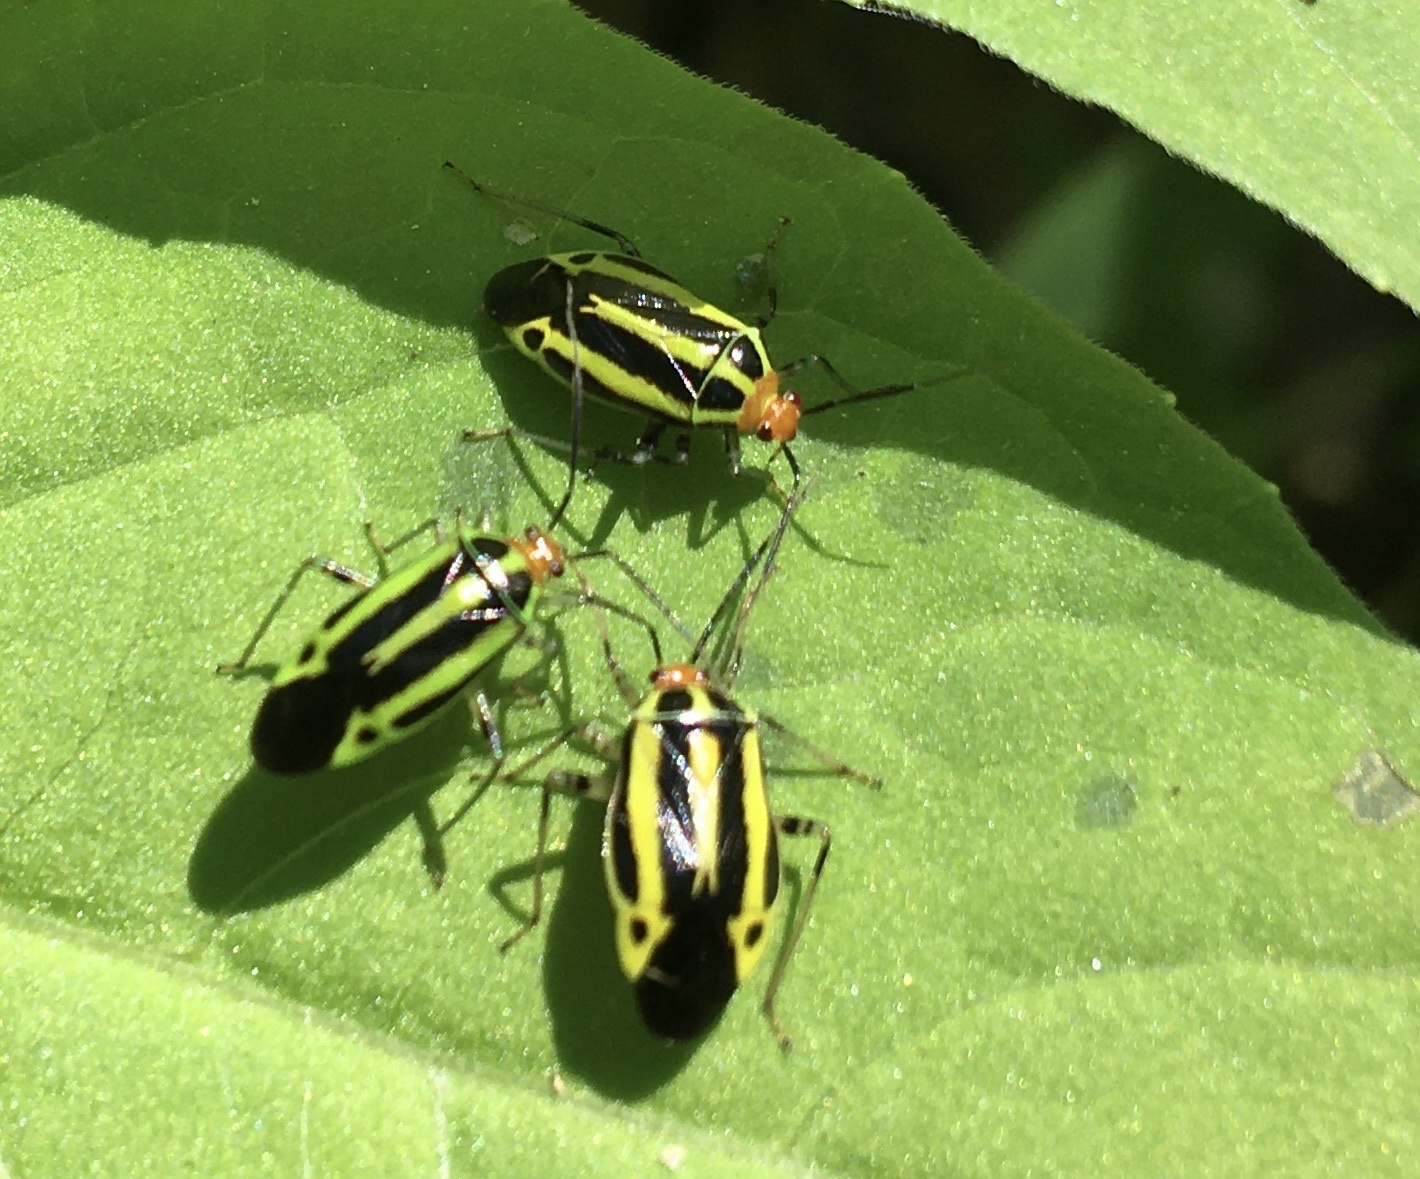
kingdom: Animalia
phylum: Arthropoda
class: Insecta
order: Hemiptera
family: Miridae
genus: Poecilocapsus
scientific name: Poecilocapsus lineatus
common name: Four-lined plant bug
